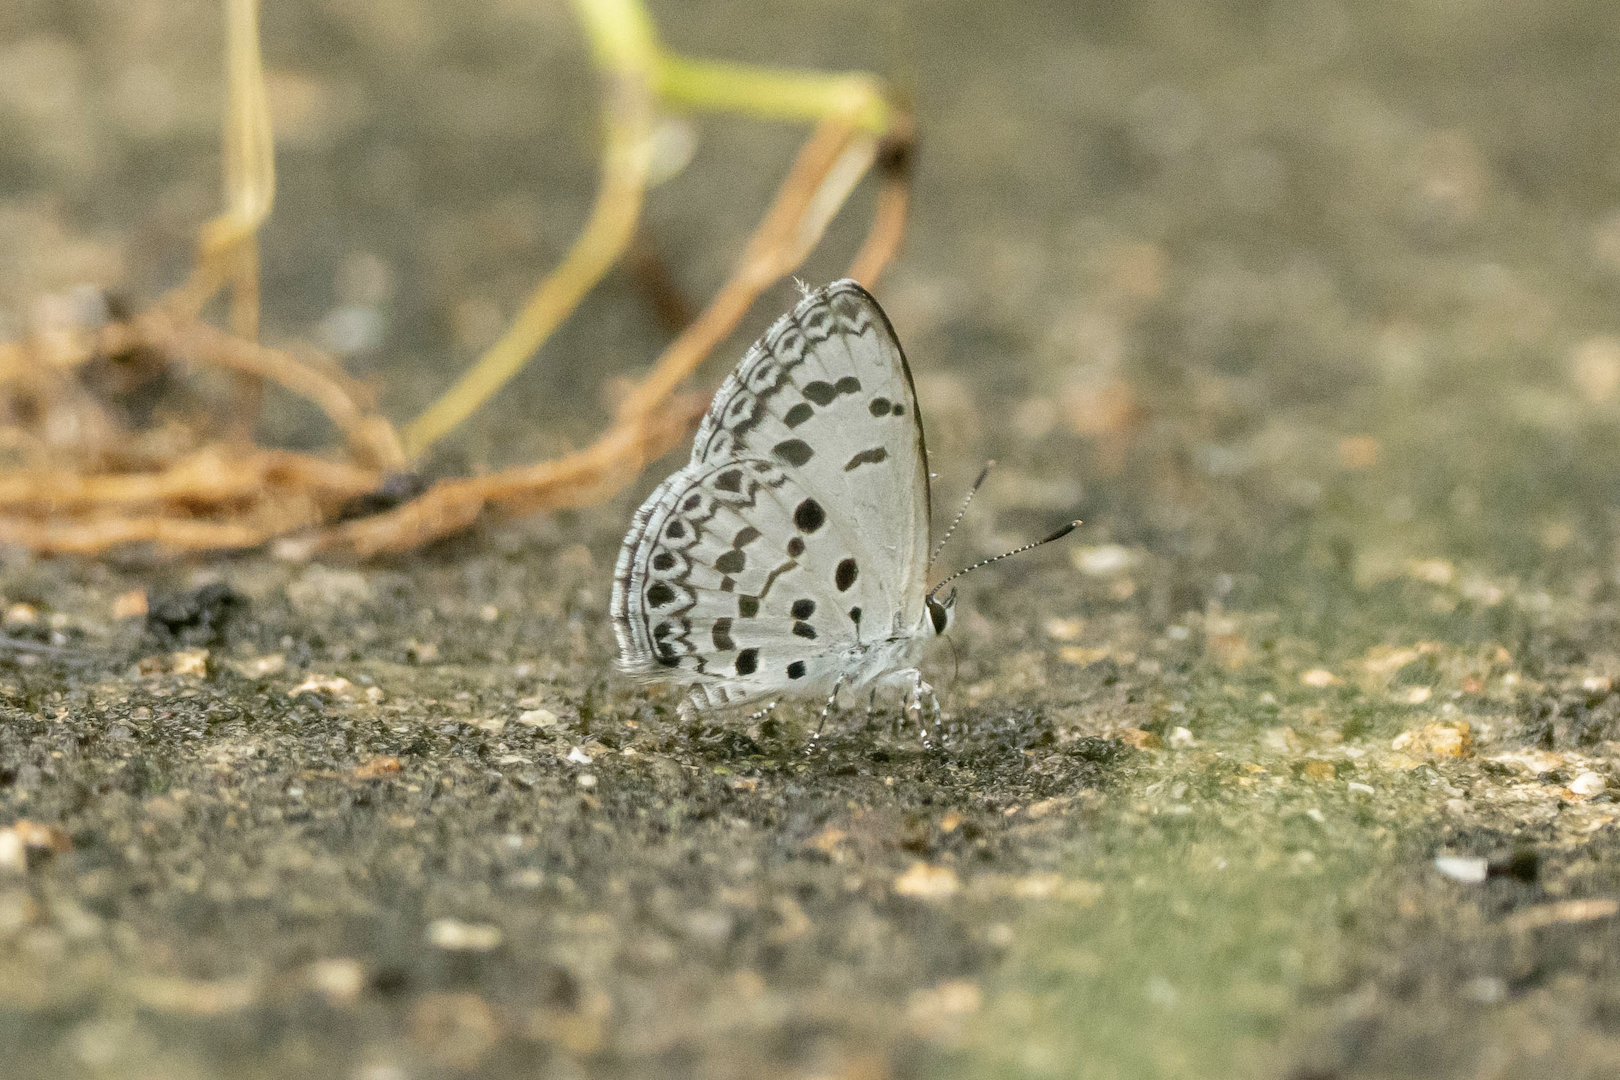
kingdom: Animalia
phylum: Arthropoda
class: Insecta
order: Lepidoptera
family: Lycaenidae
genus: Acytolepis
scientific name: Acytolepis puspa
